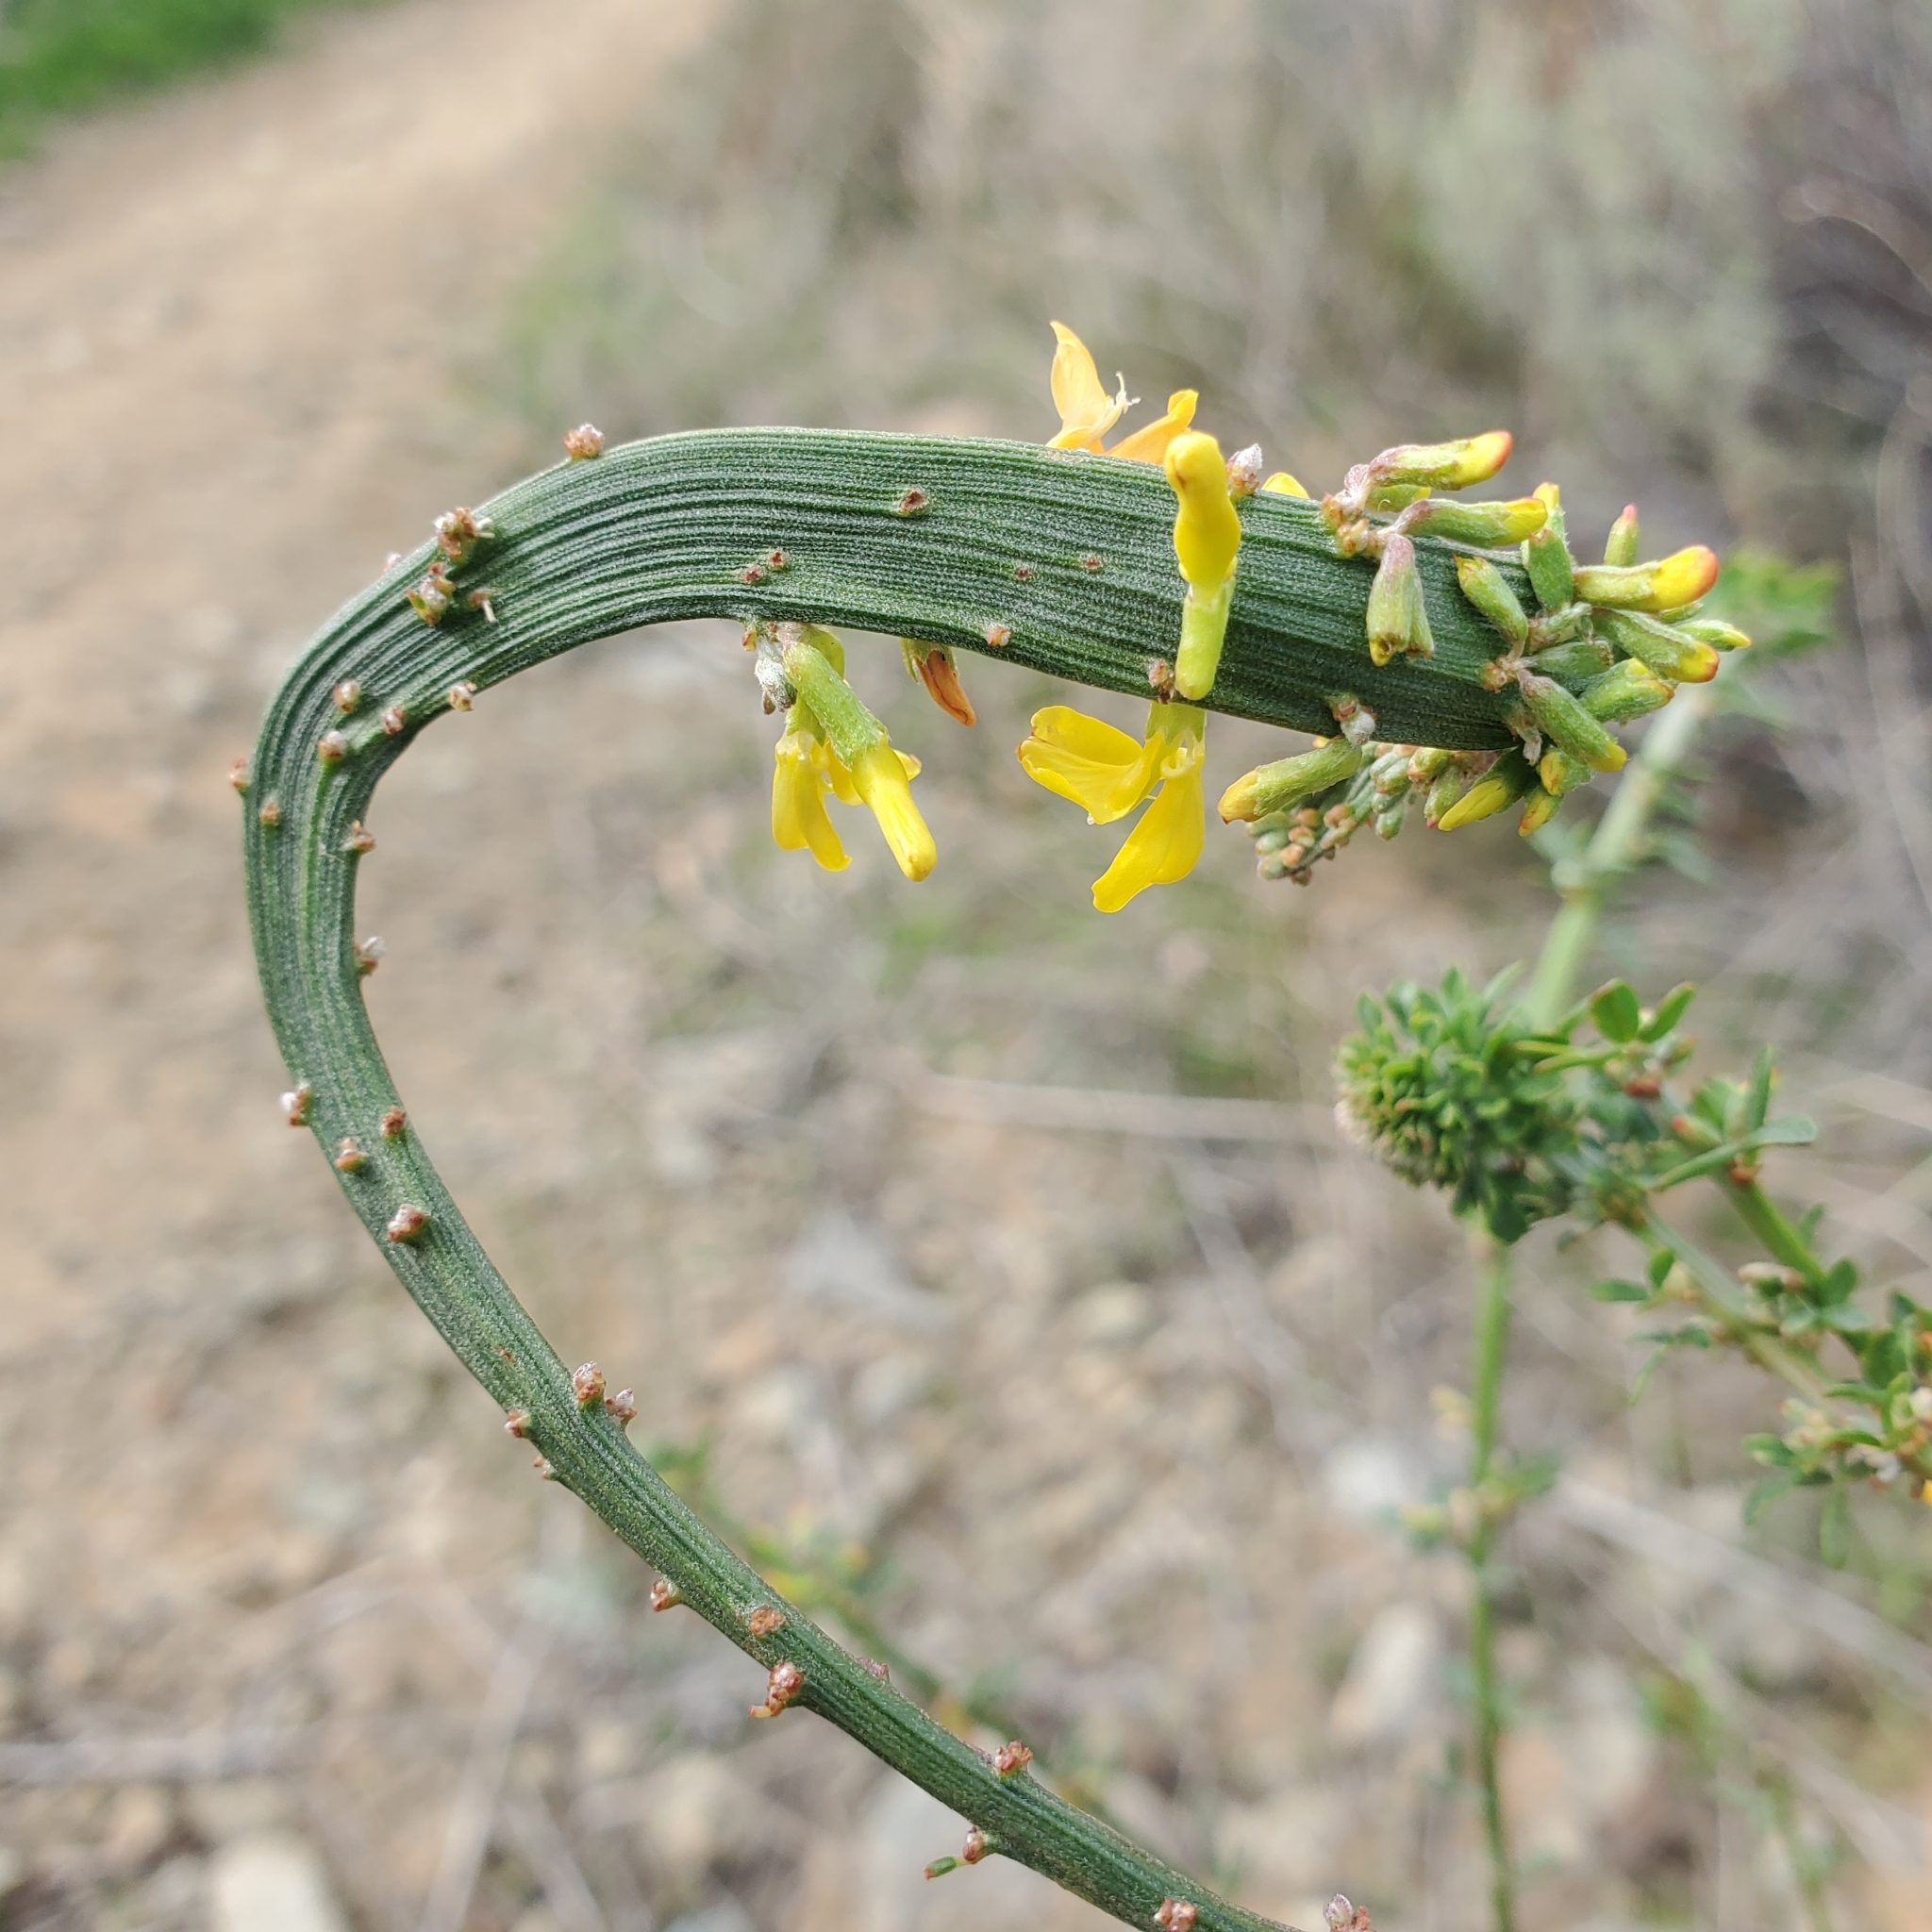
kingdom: Plantae
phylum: Tracheophyta
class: Magnoliopsida
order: Fabales
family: Fabaceae
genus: Acmispon
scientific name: Acmispon glaber
